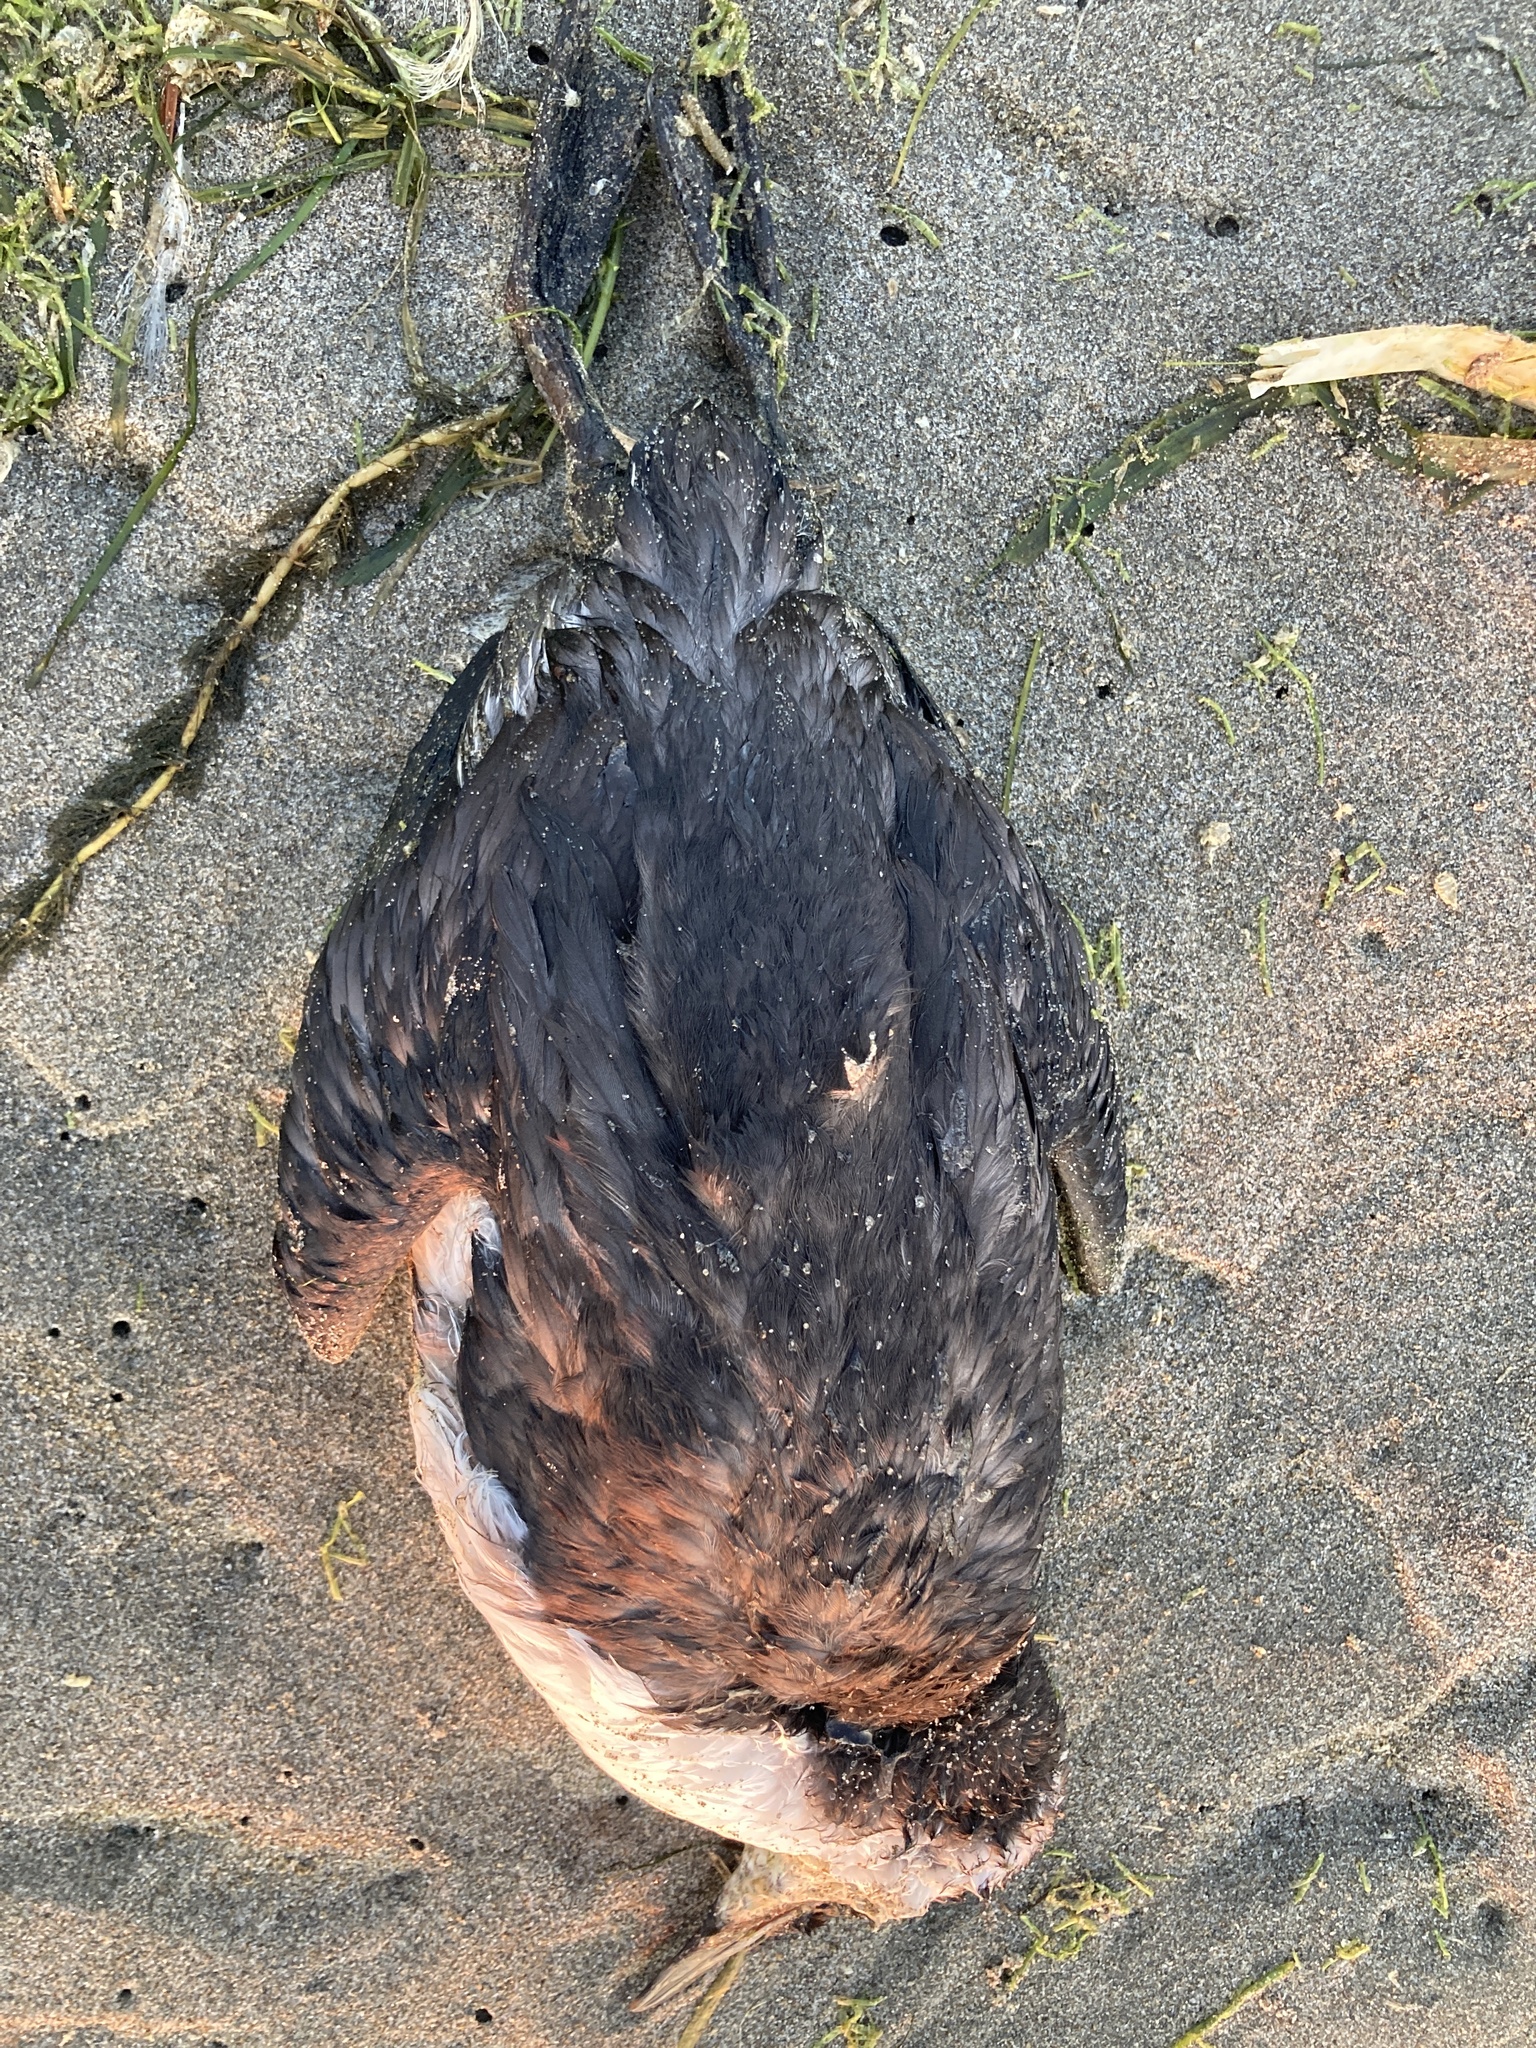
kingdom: Animalia
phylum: Chordata
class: Aves
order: Charadriiformes
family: Alcidae
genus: Uria
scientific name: Uria aalge
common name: Common murre
